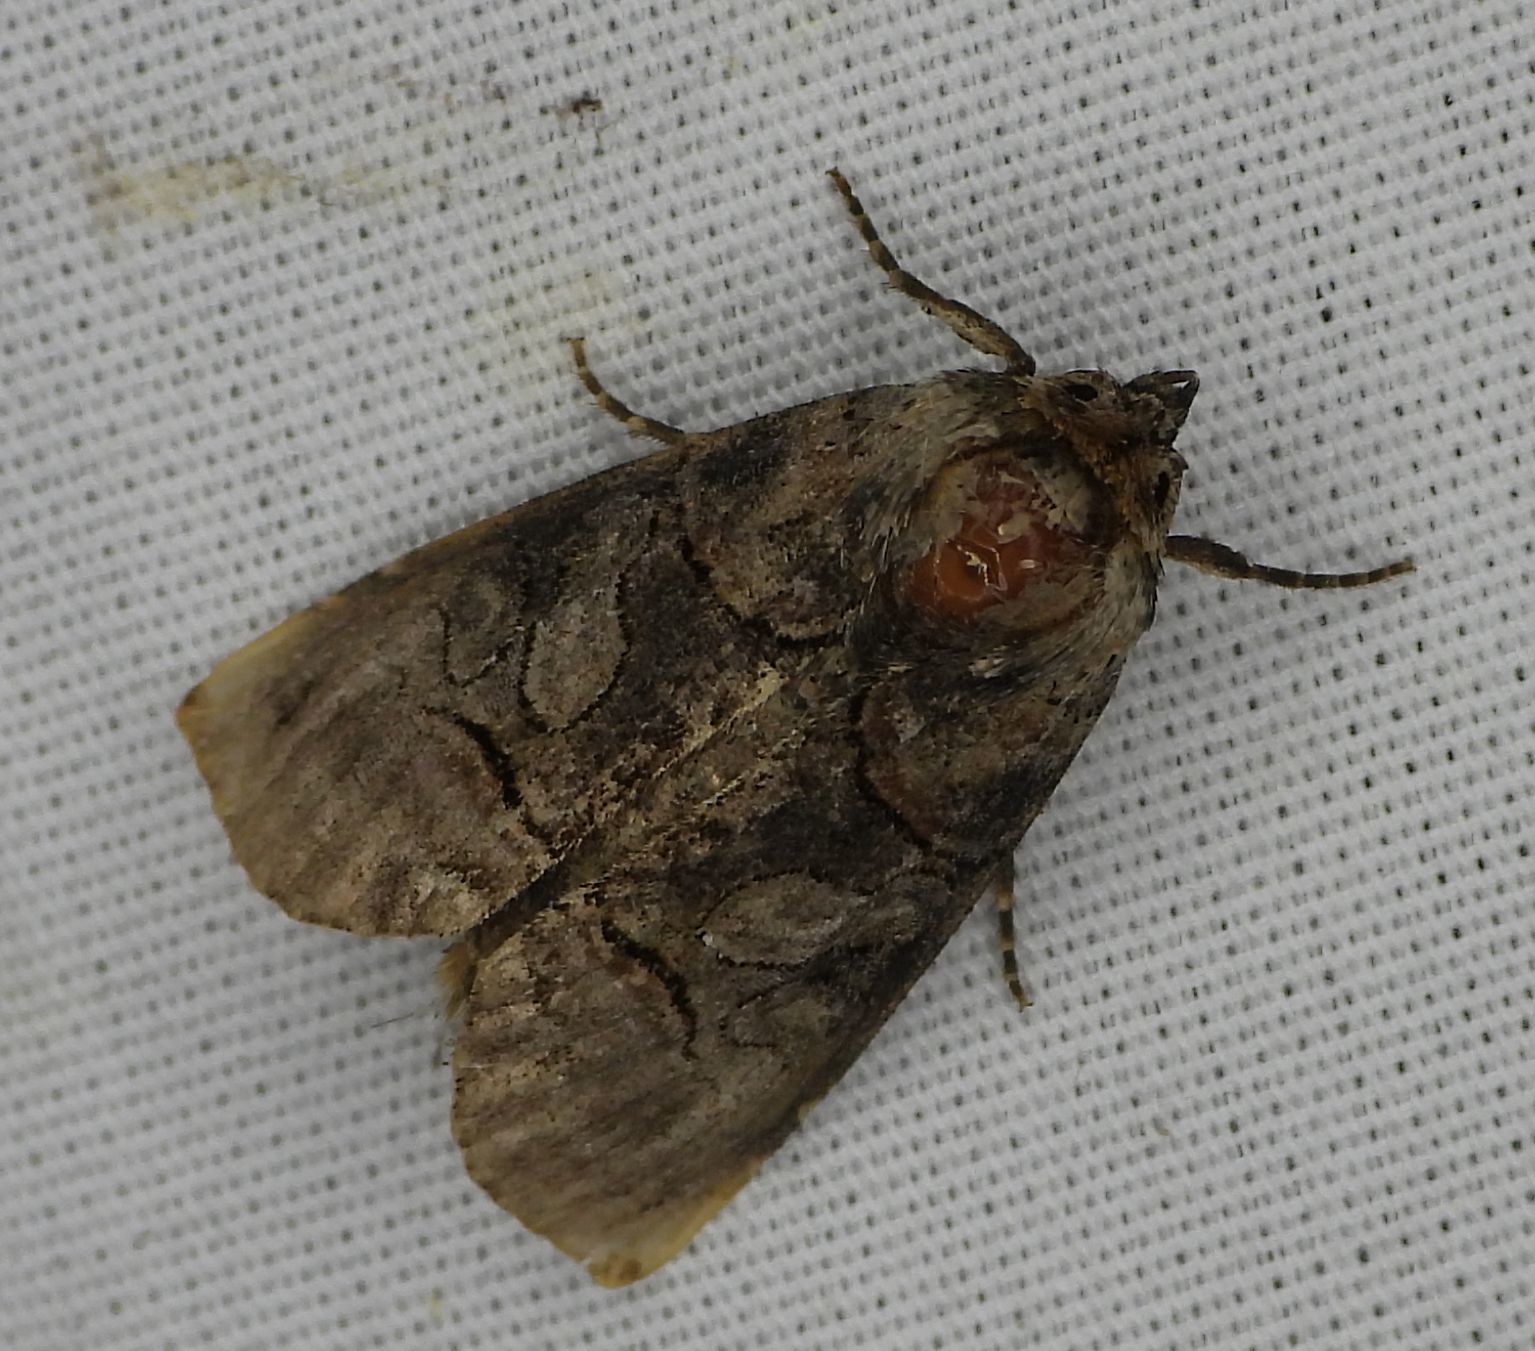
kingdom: Animalia
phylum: Arthropoda
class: Insecta
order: Lepidoptera
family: Noctuidae
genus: Abrostola
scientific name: Abrostola urentis
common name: Spectacled nettle moth
